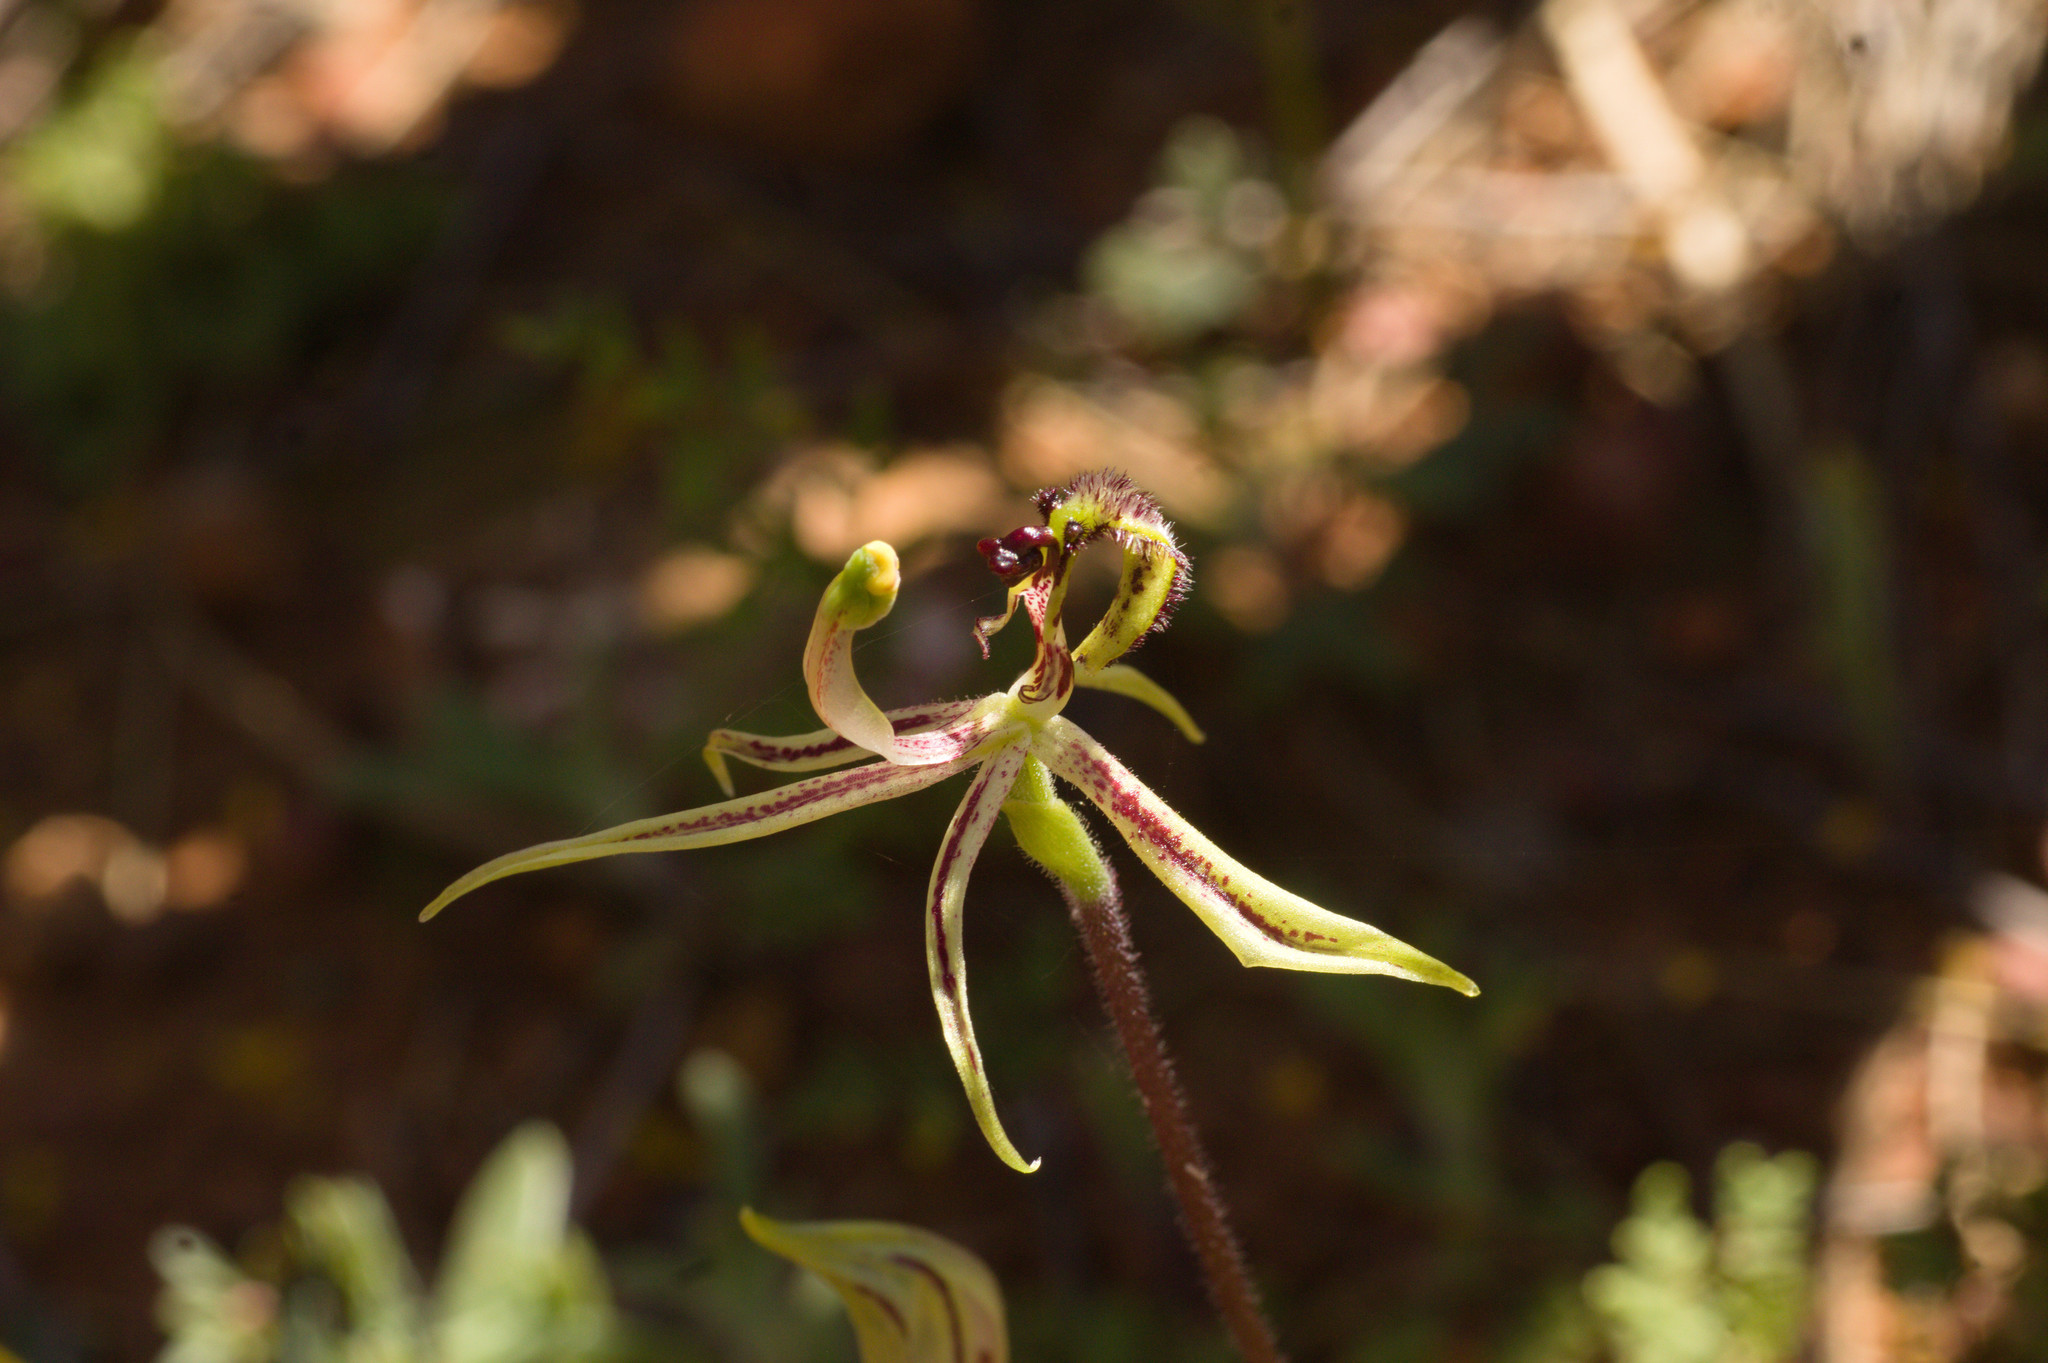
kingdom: Plantae
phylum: Tracheophyta
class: Liliopsida
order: Asparagales
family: Orchidaceae
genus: Caladenia
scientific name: Caladenia mesocera
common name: Narrow-lipped dragon orchid
